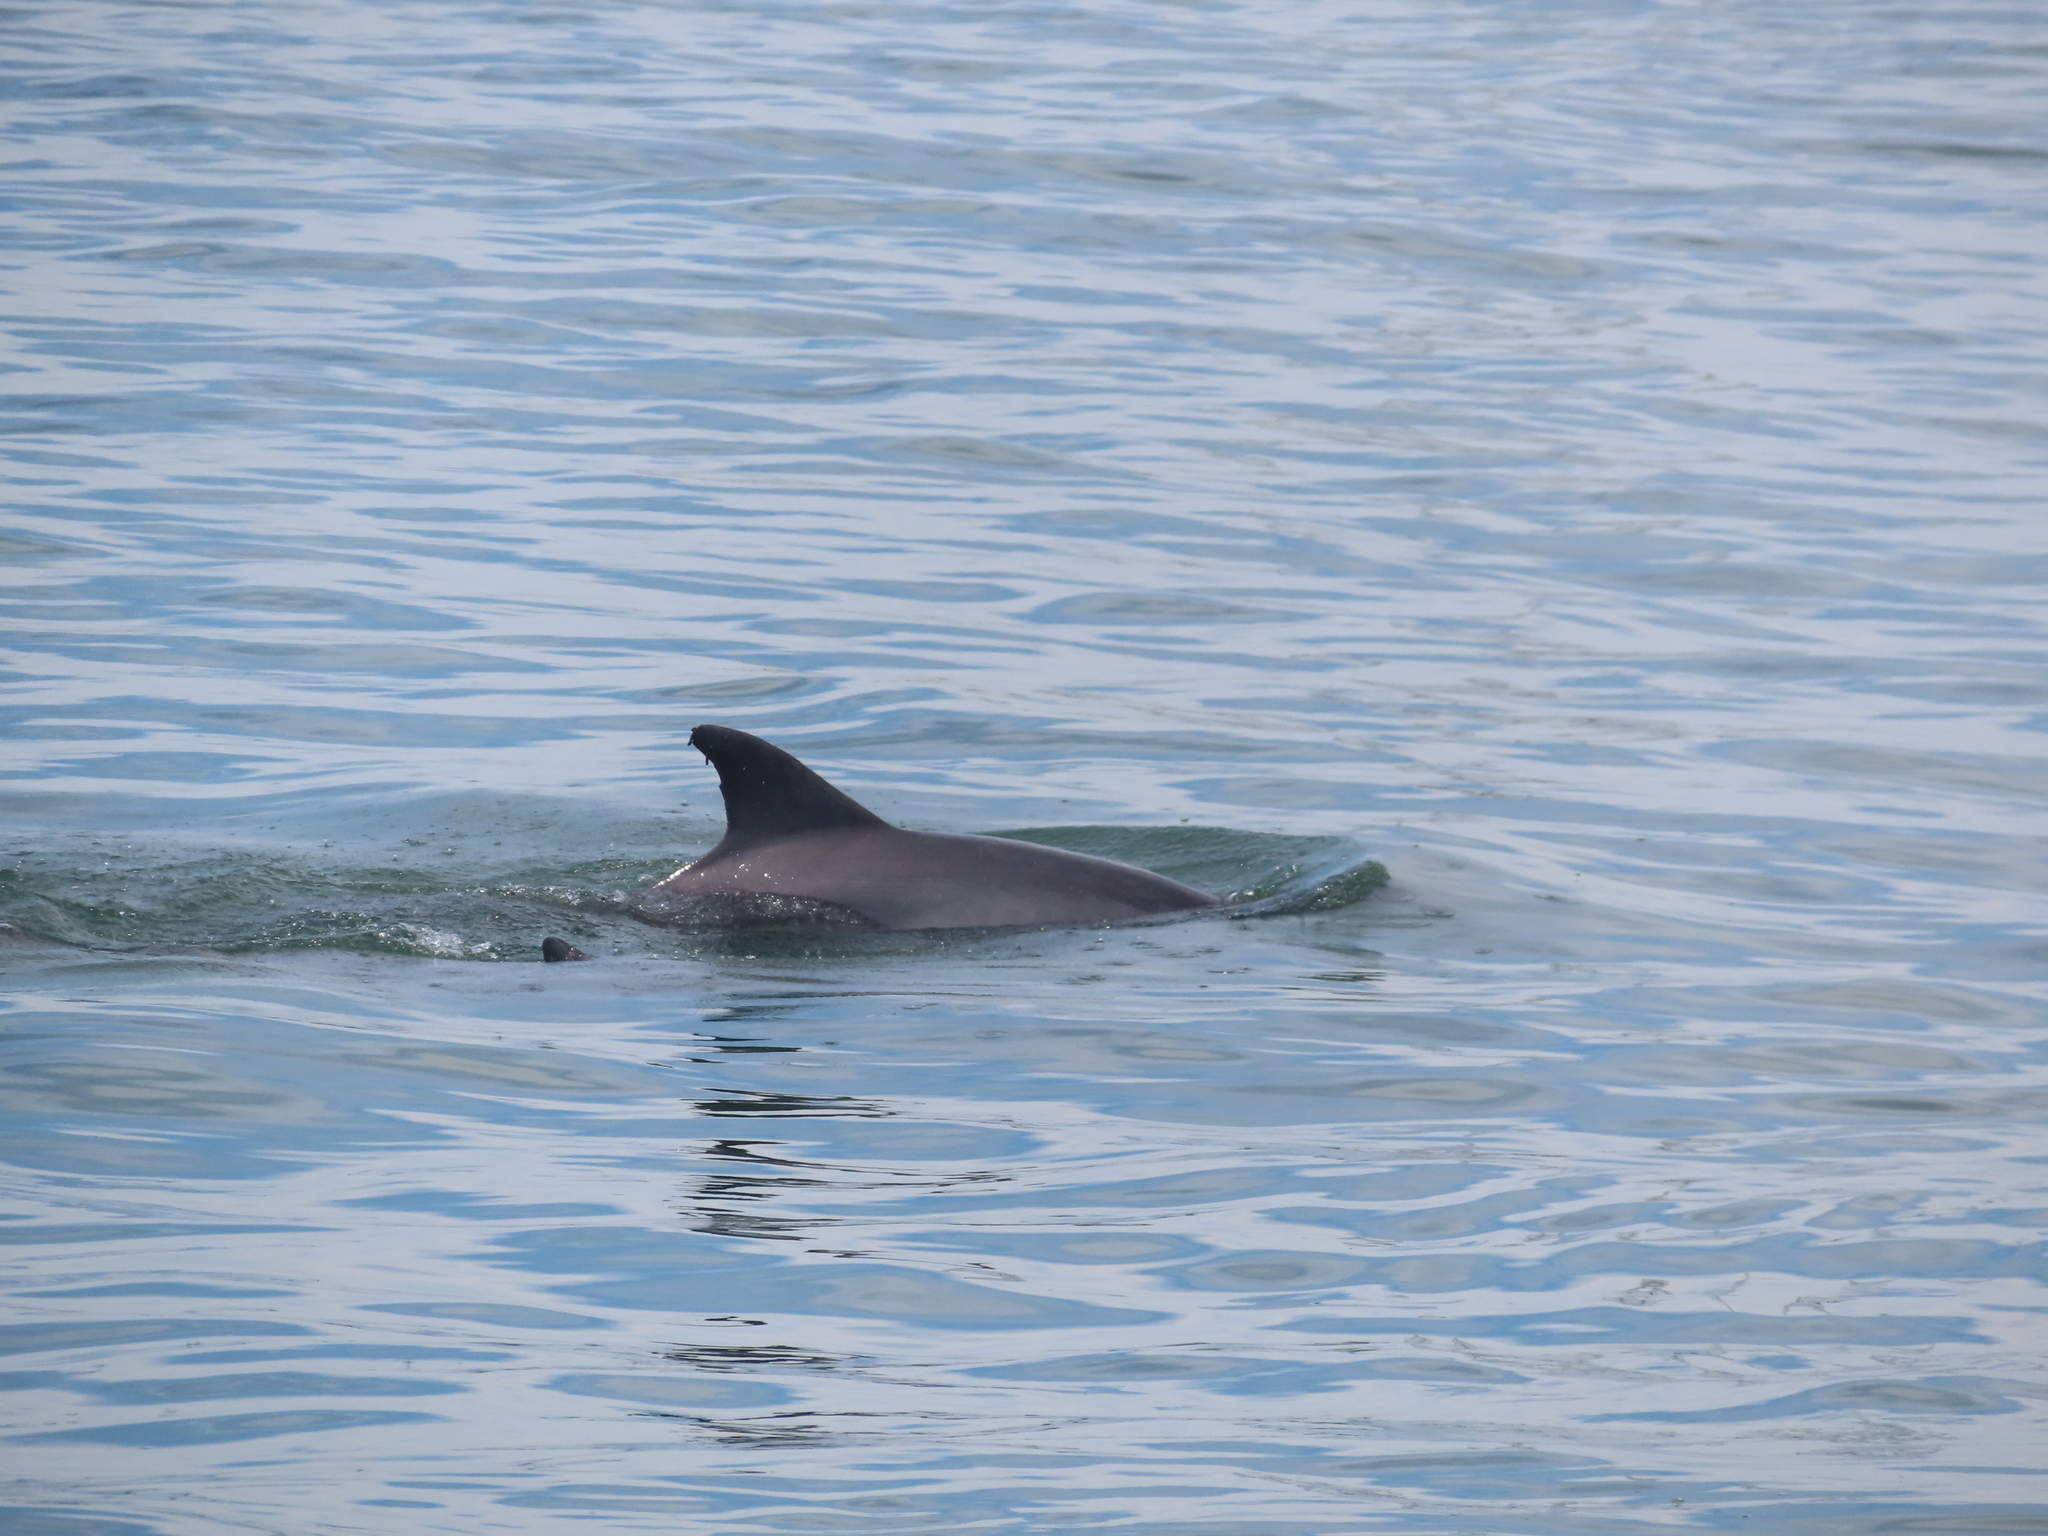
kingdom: Animalia
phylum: Chordata
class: Mammalia
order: Cetacea
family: Delphinidae
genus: Tursiops
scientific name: Tursiops truncatus
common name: Bottlenose dolphin
